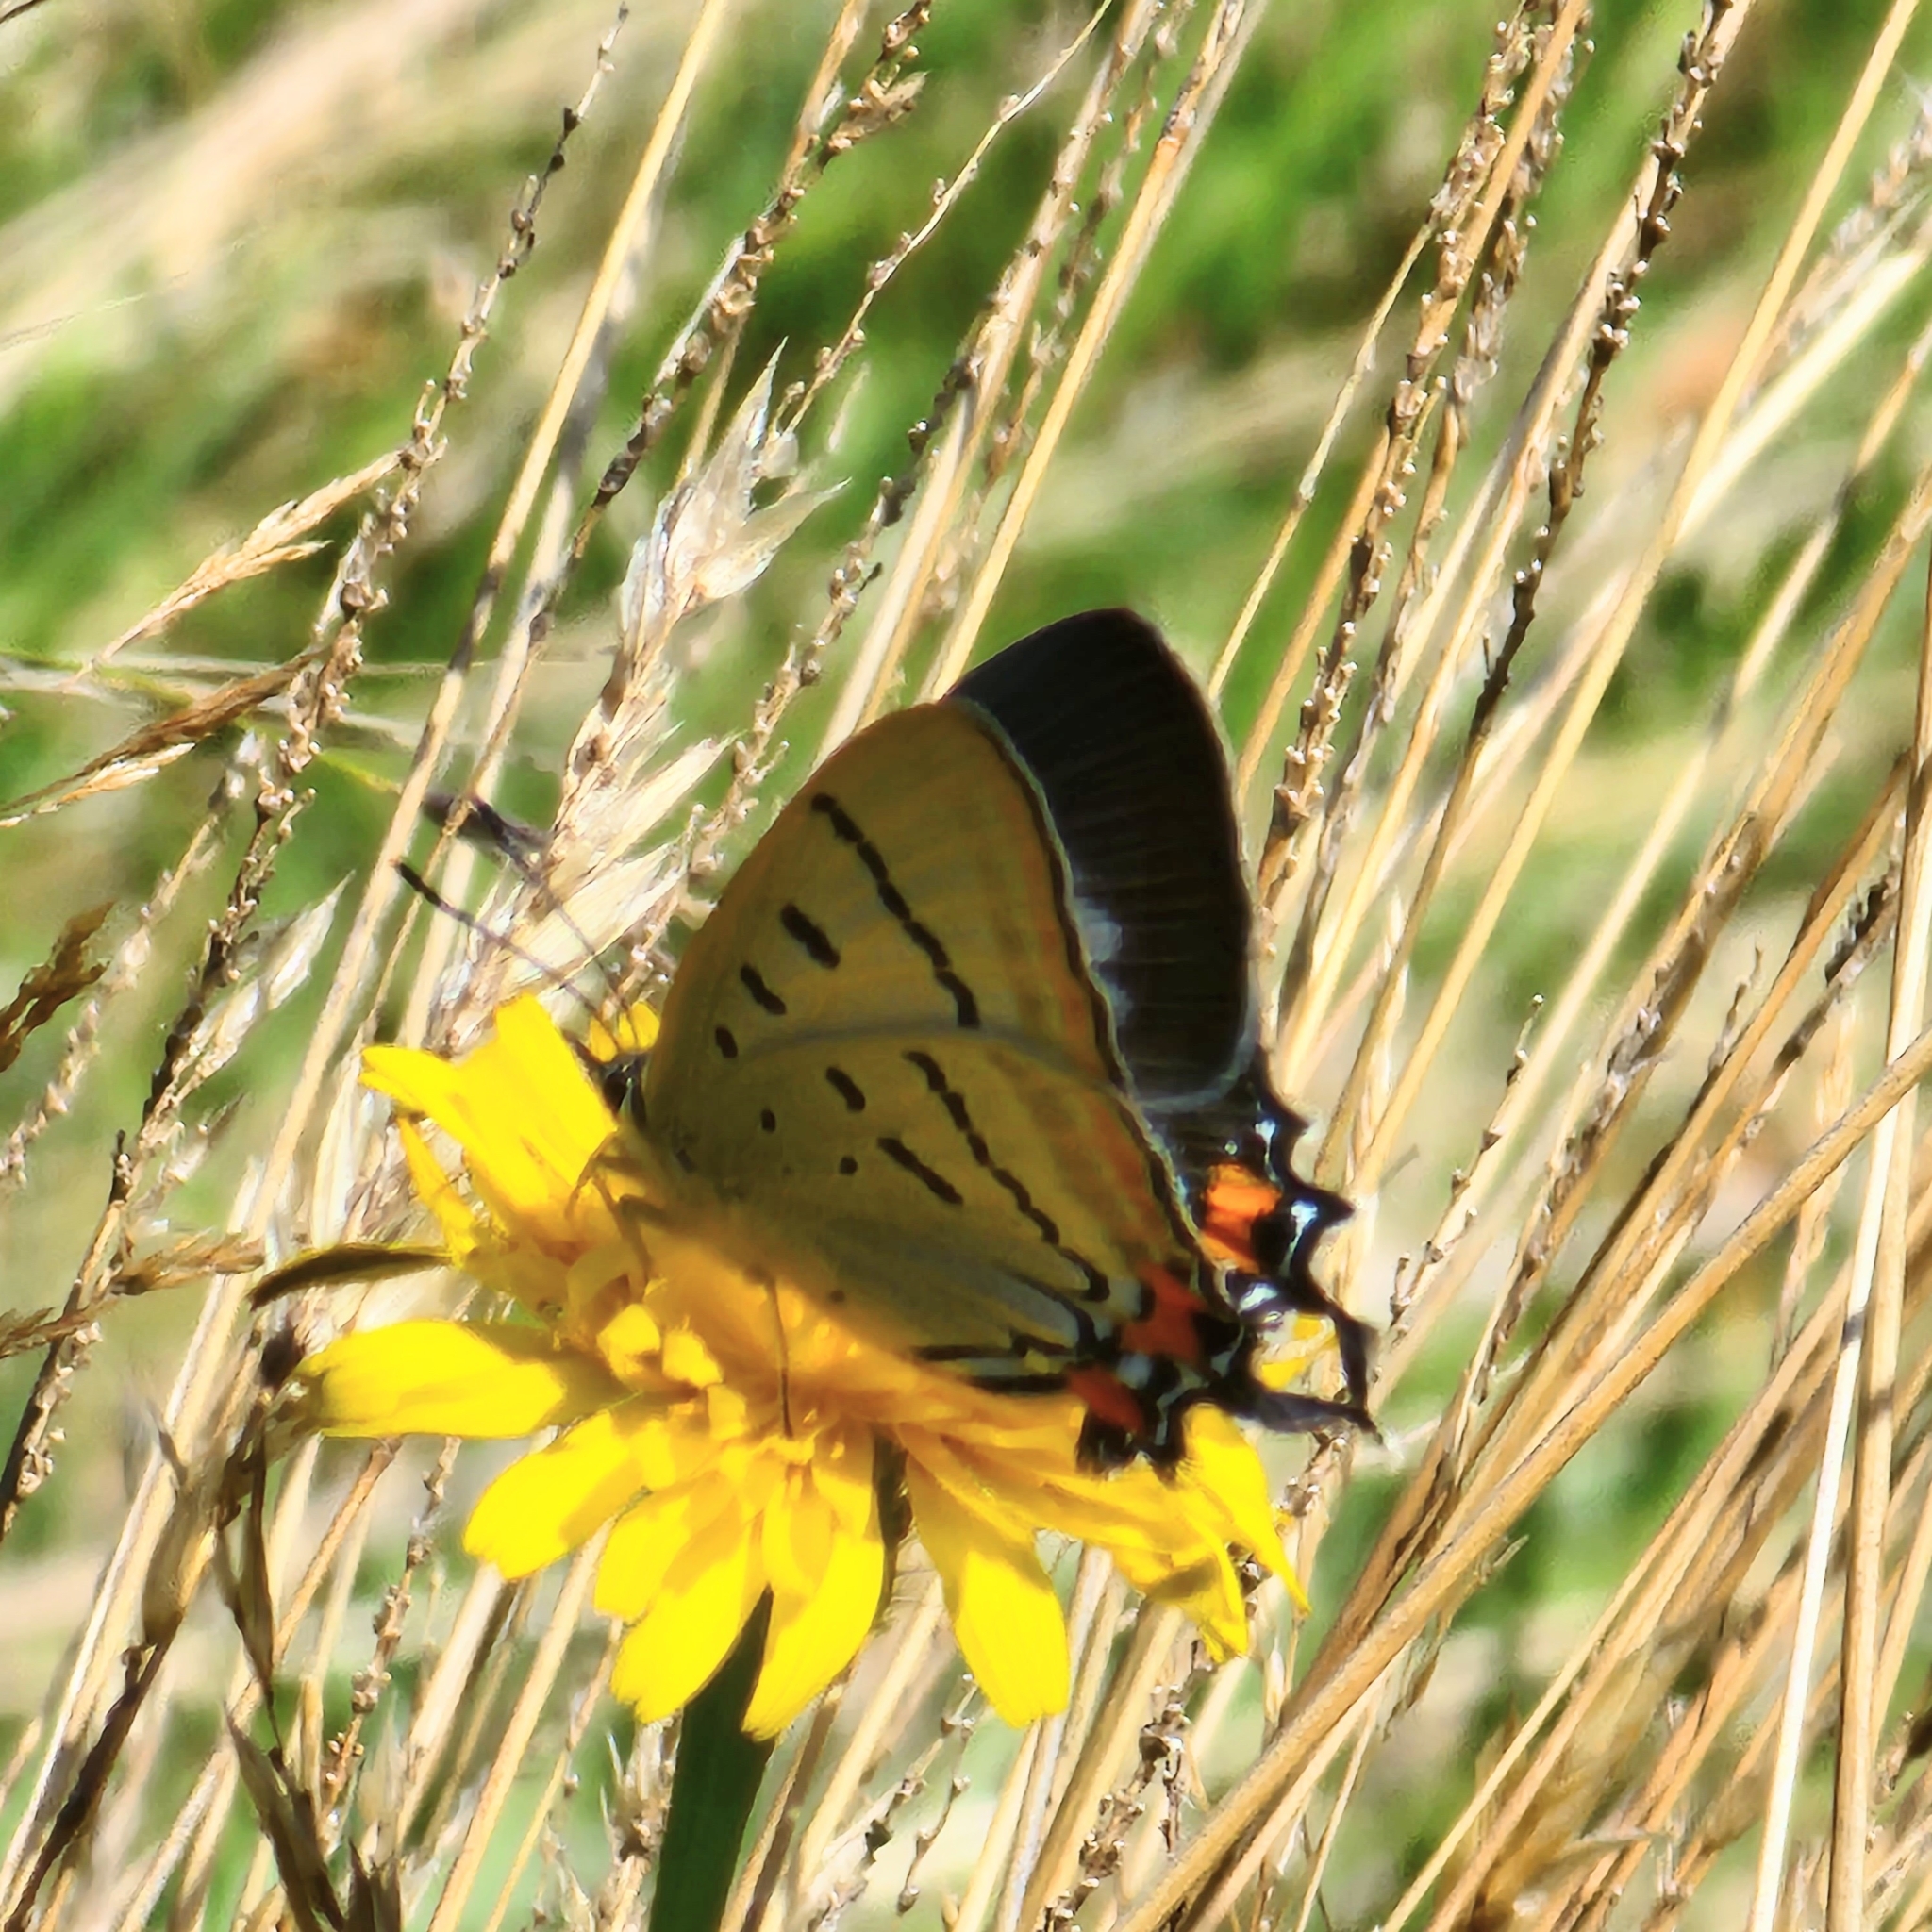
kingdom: Animalia
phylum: Arthropoda
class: Insecta
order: Lepidoptera
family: Lycaenidae
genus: Jalmenus
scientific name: Jalmenus evagoras
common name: Common imperial blue
